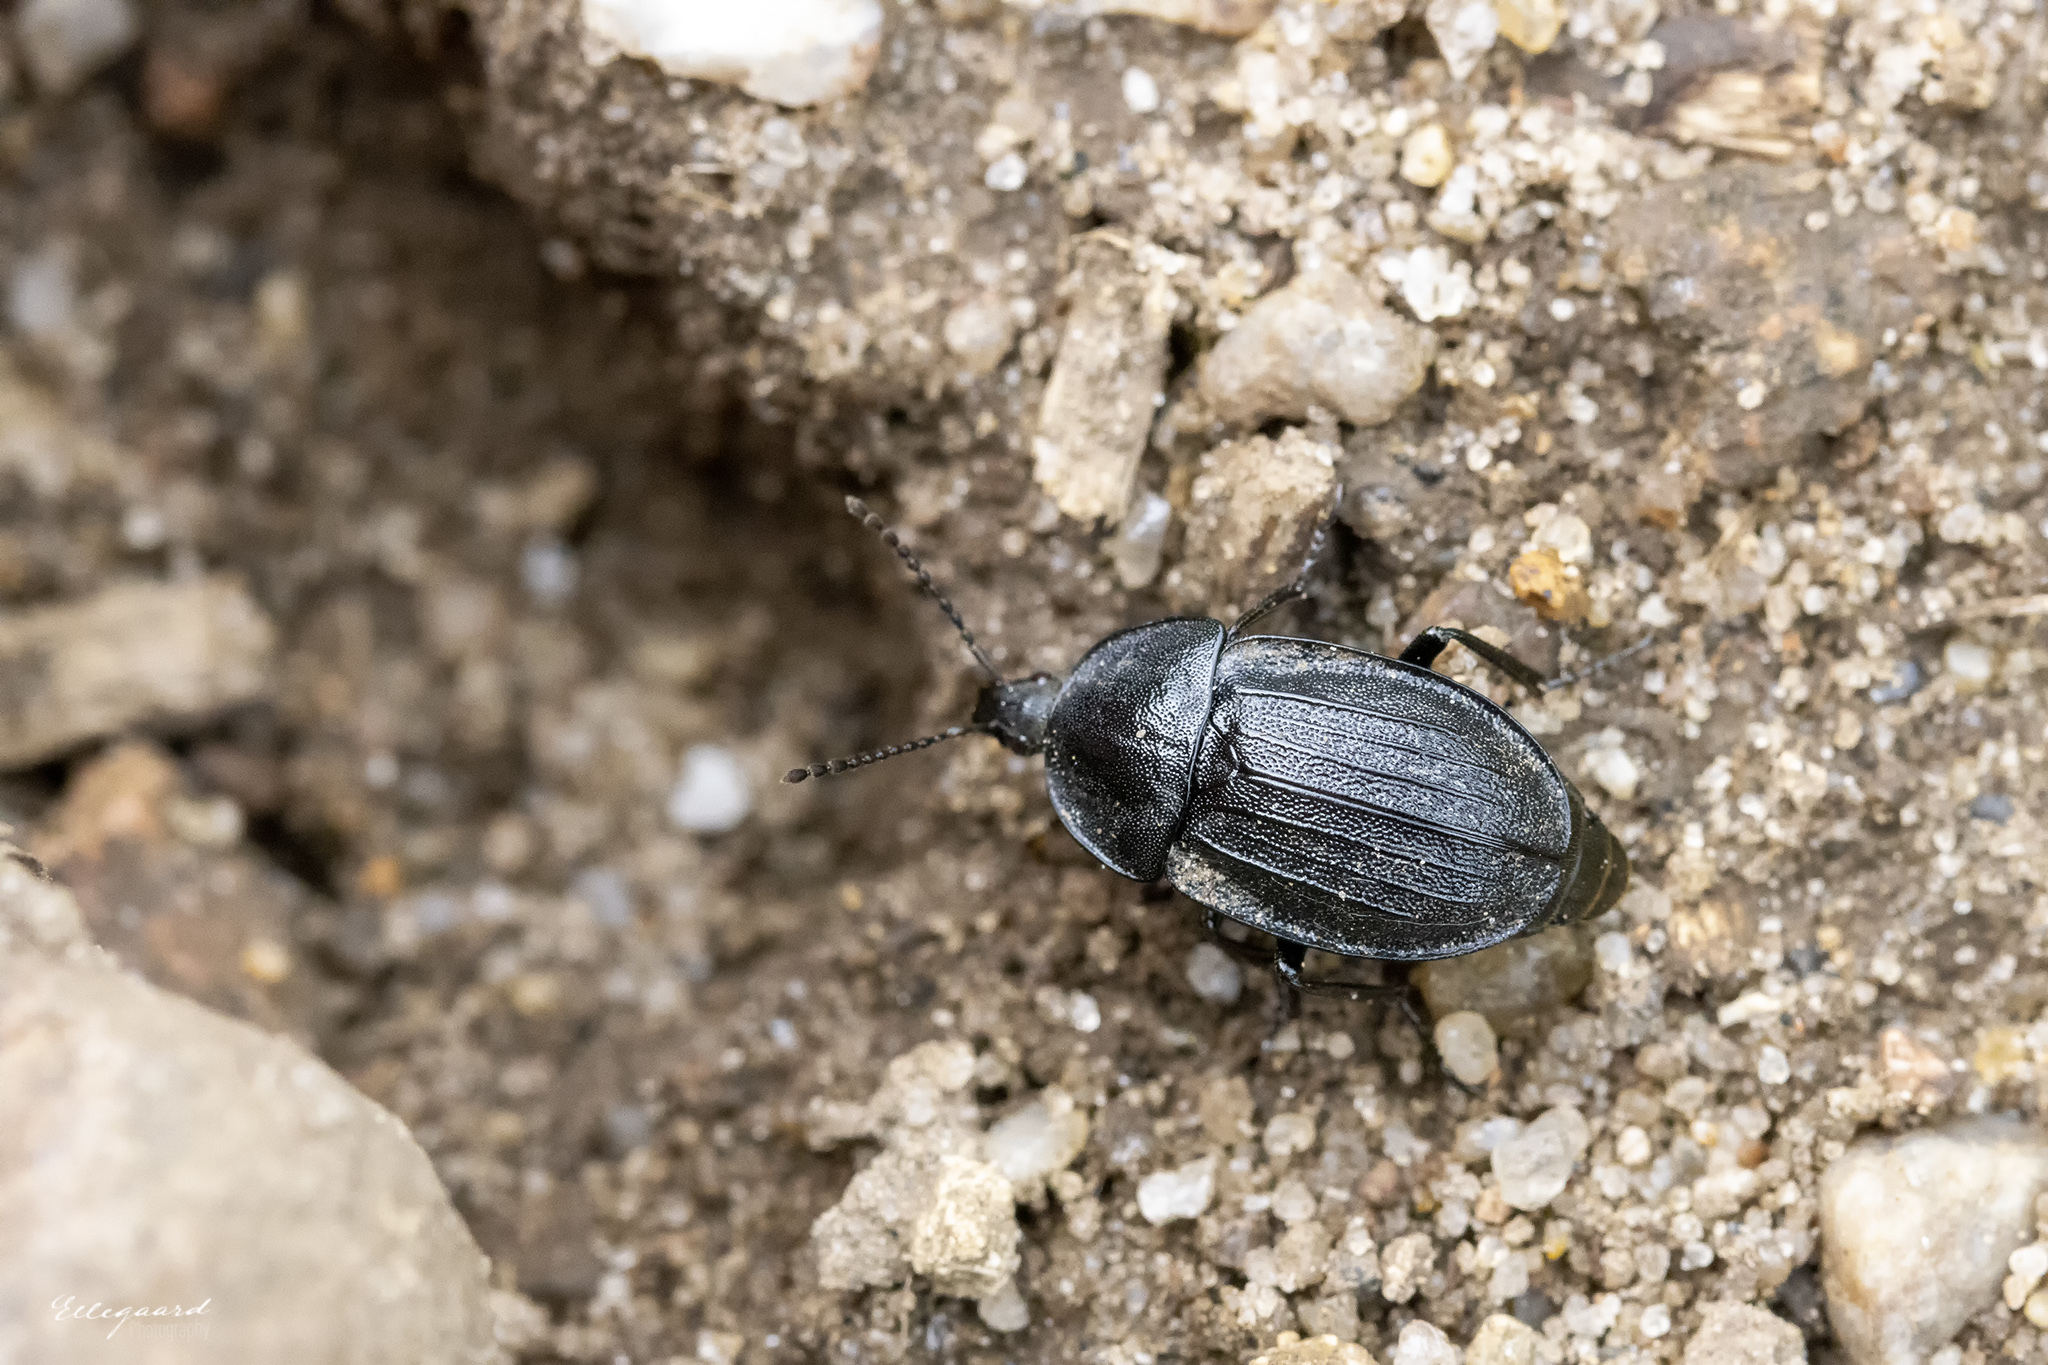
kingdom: Animalia
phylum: Arthropoda
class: Insecta
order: Coleoptera
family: Staphylinidae
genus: Silpha
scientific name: Silpha atrata
